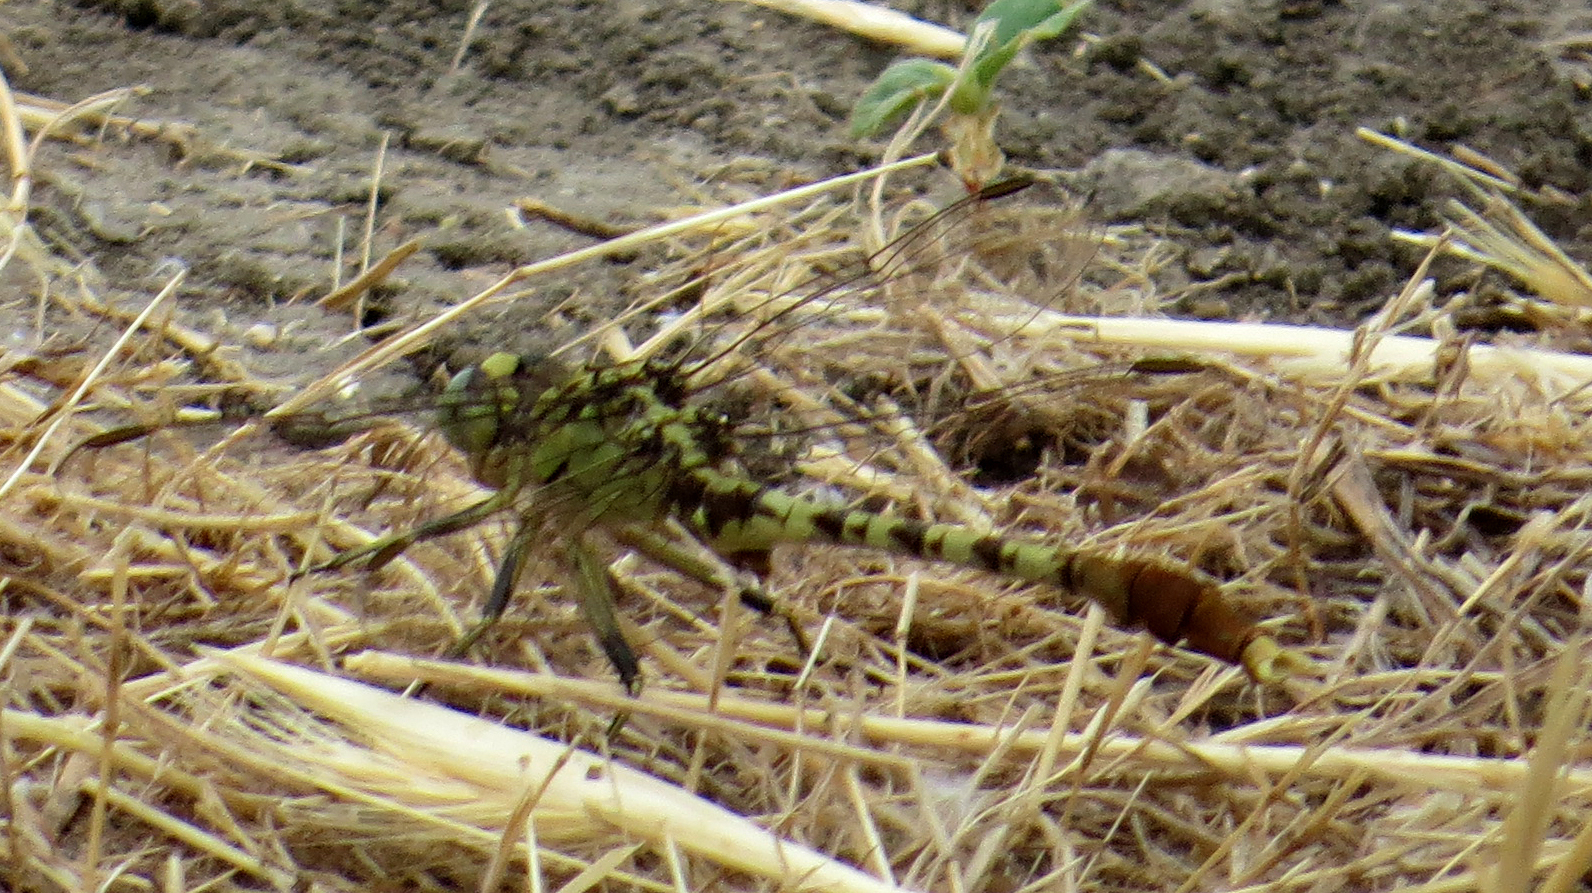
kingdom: Animalia
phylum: Arthropoda
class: Insecta
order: Odonata
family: Gomphidae
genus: Arigomphus
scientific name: Arigomphus submedianus
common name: Jade clubtail
